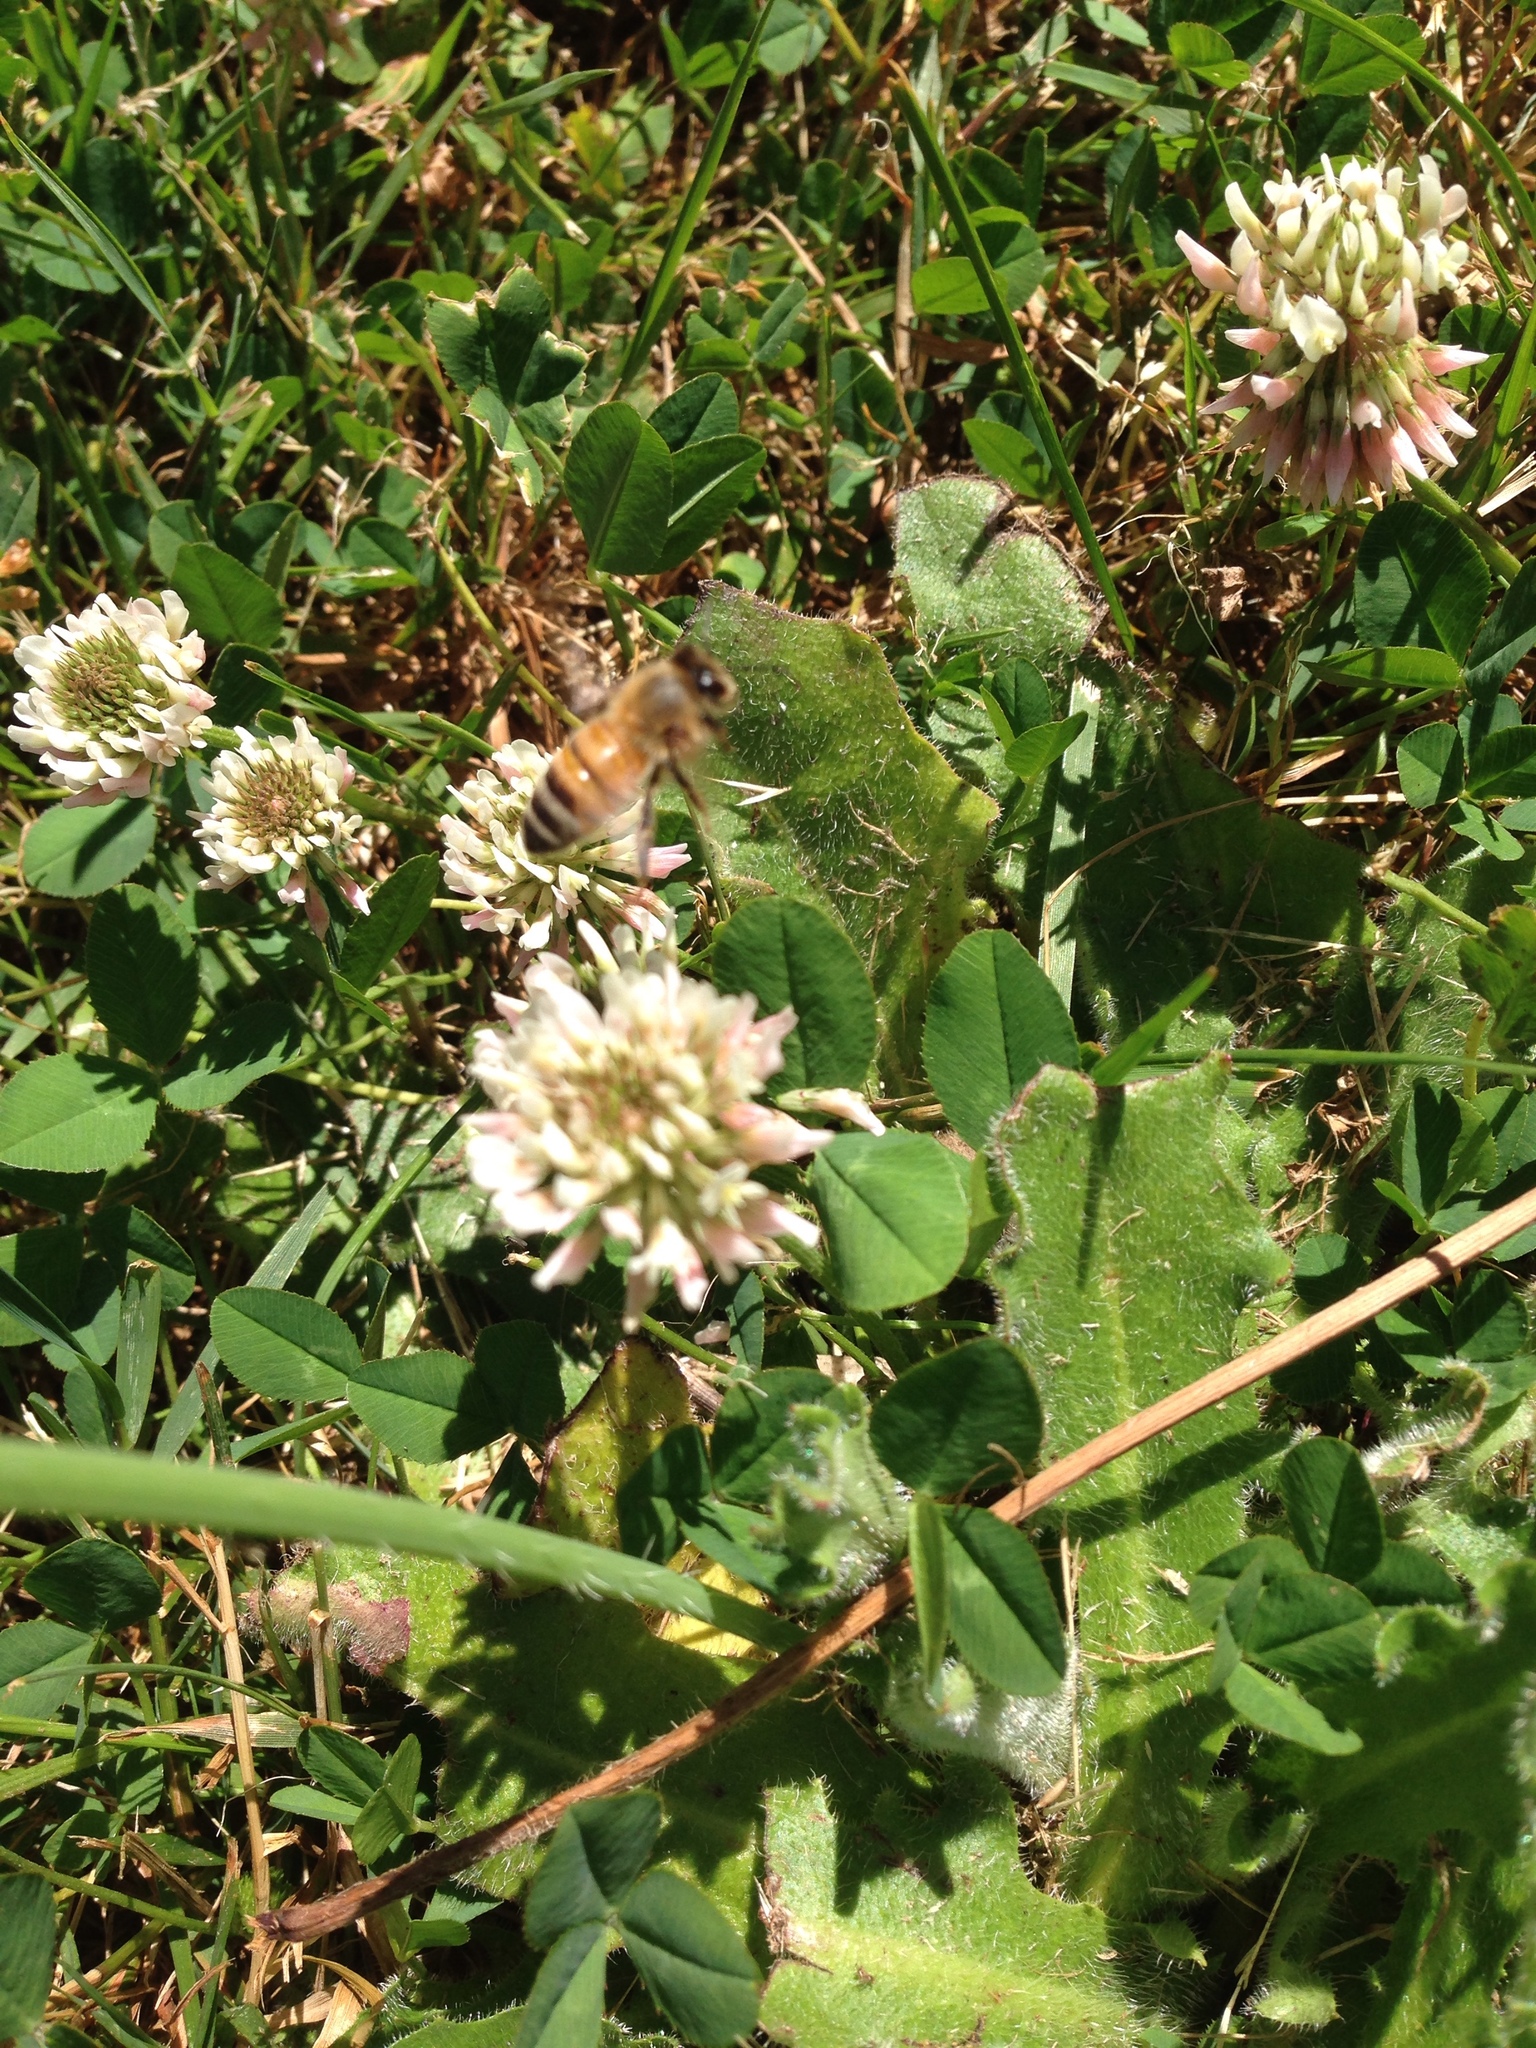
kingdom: Plantae
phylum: Tracheophyta
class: Magnoliopsida
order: Fabales
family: Fabaceae
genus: Trifolium
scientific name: Trifolium repens
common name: White clover
